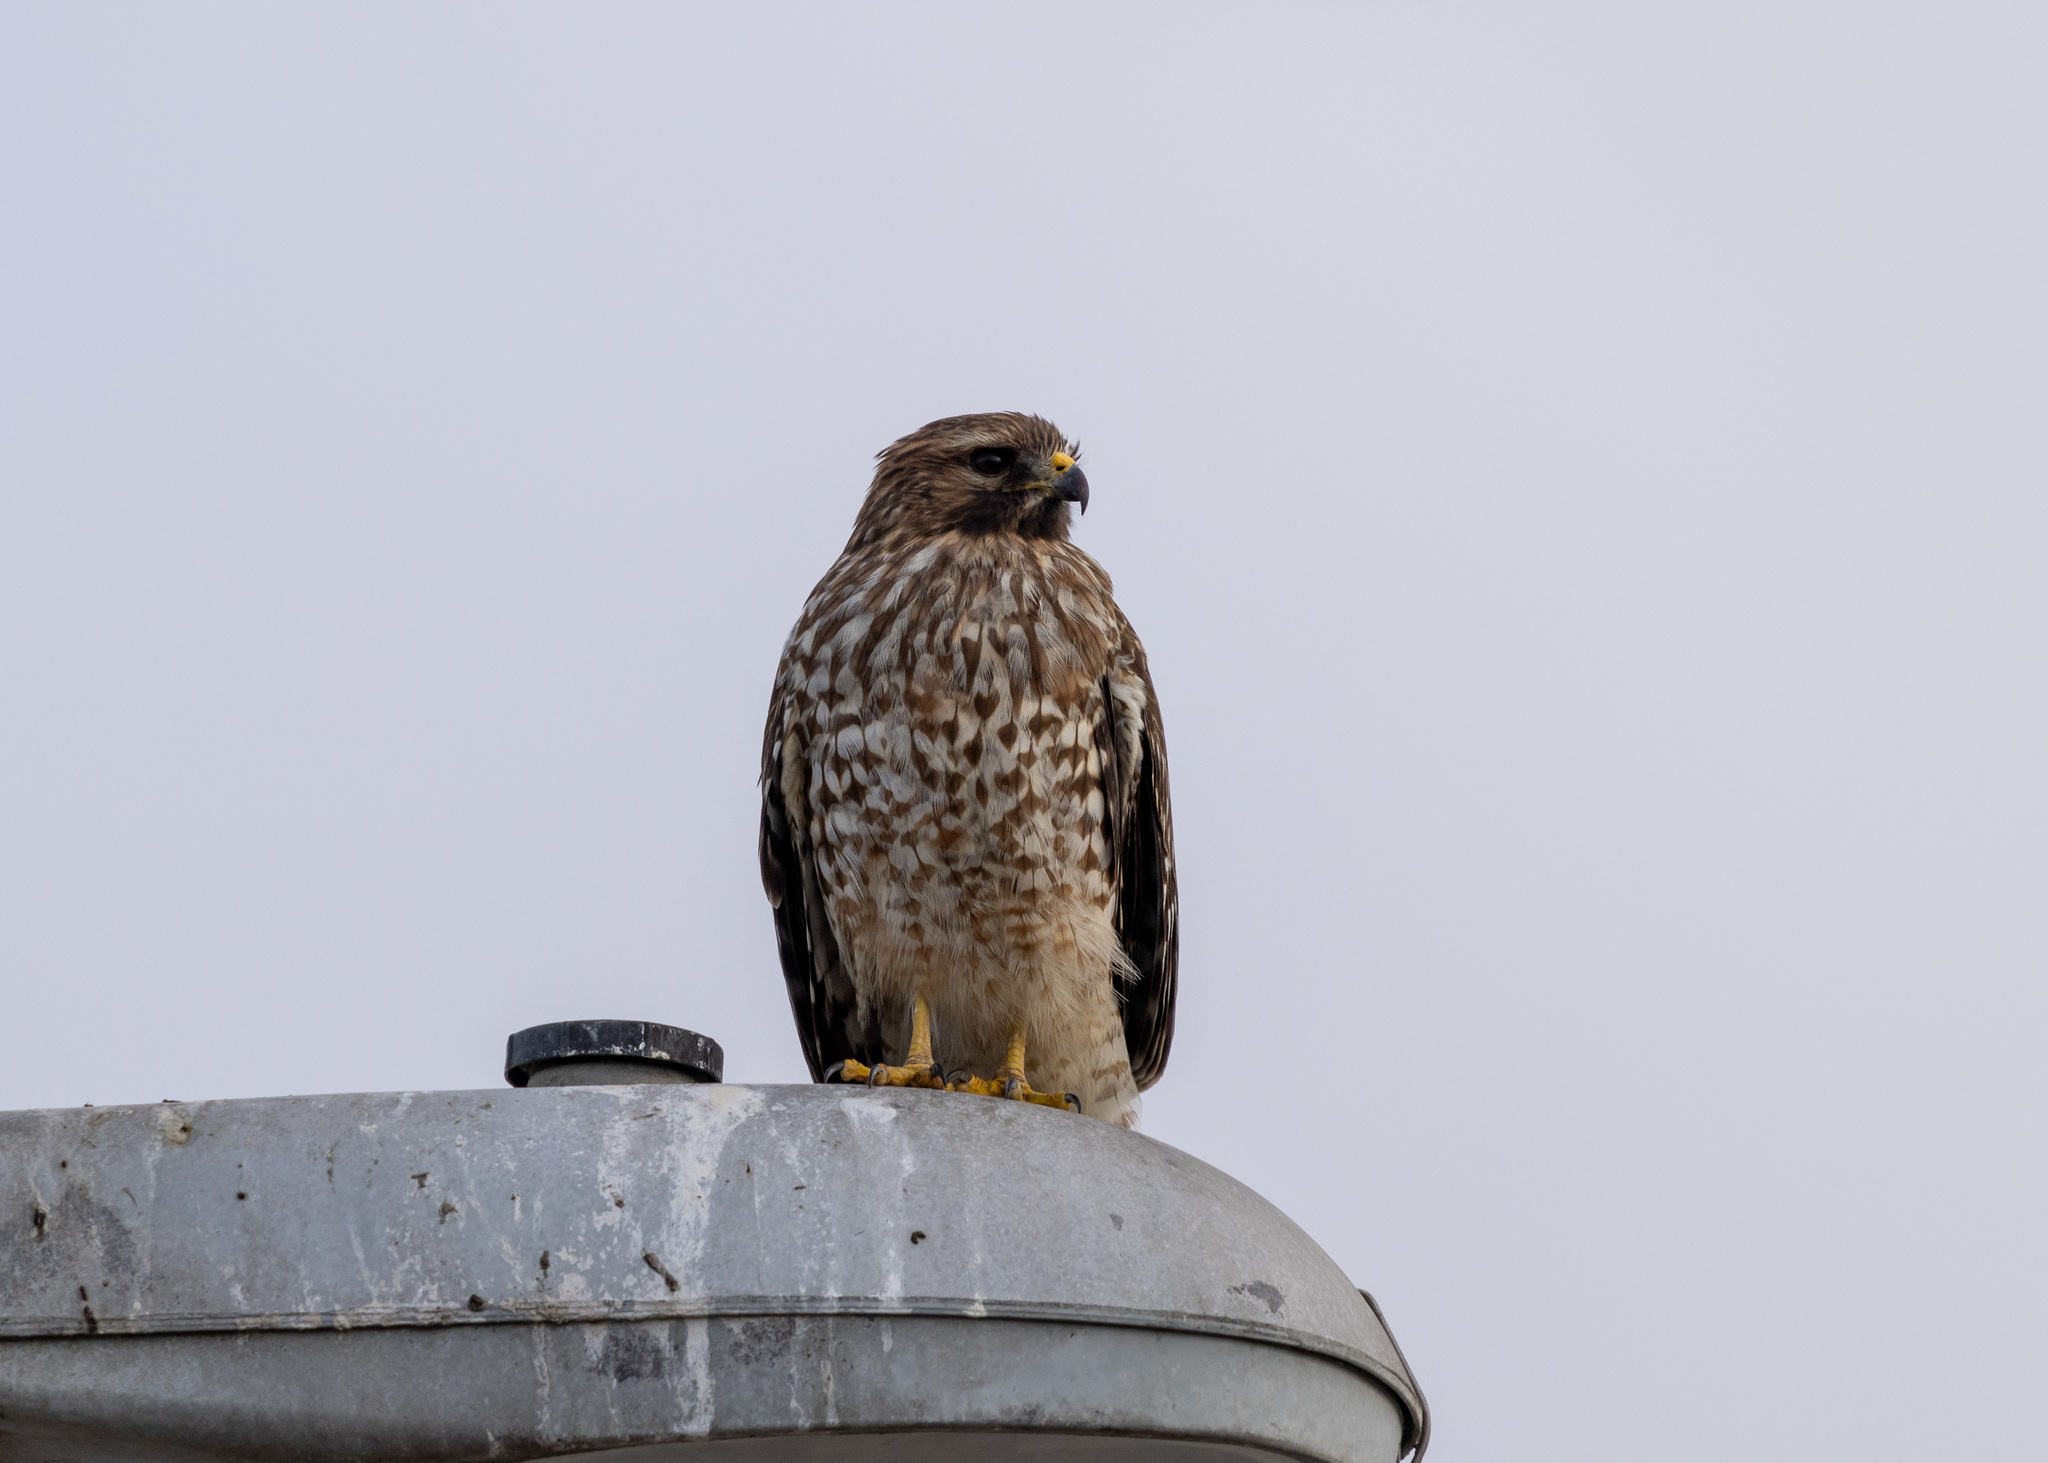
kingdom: Animalia
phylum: Chordata
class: Aves
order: Accipitriformes
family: Accipitridae
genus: Buteo
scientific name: Buteo lineatus
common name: Red-shouldered hawk
